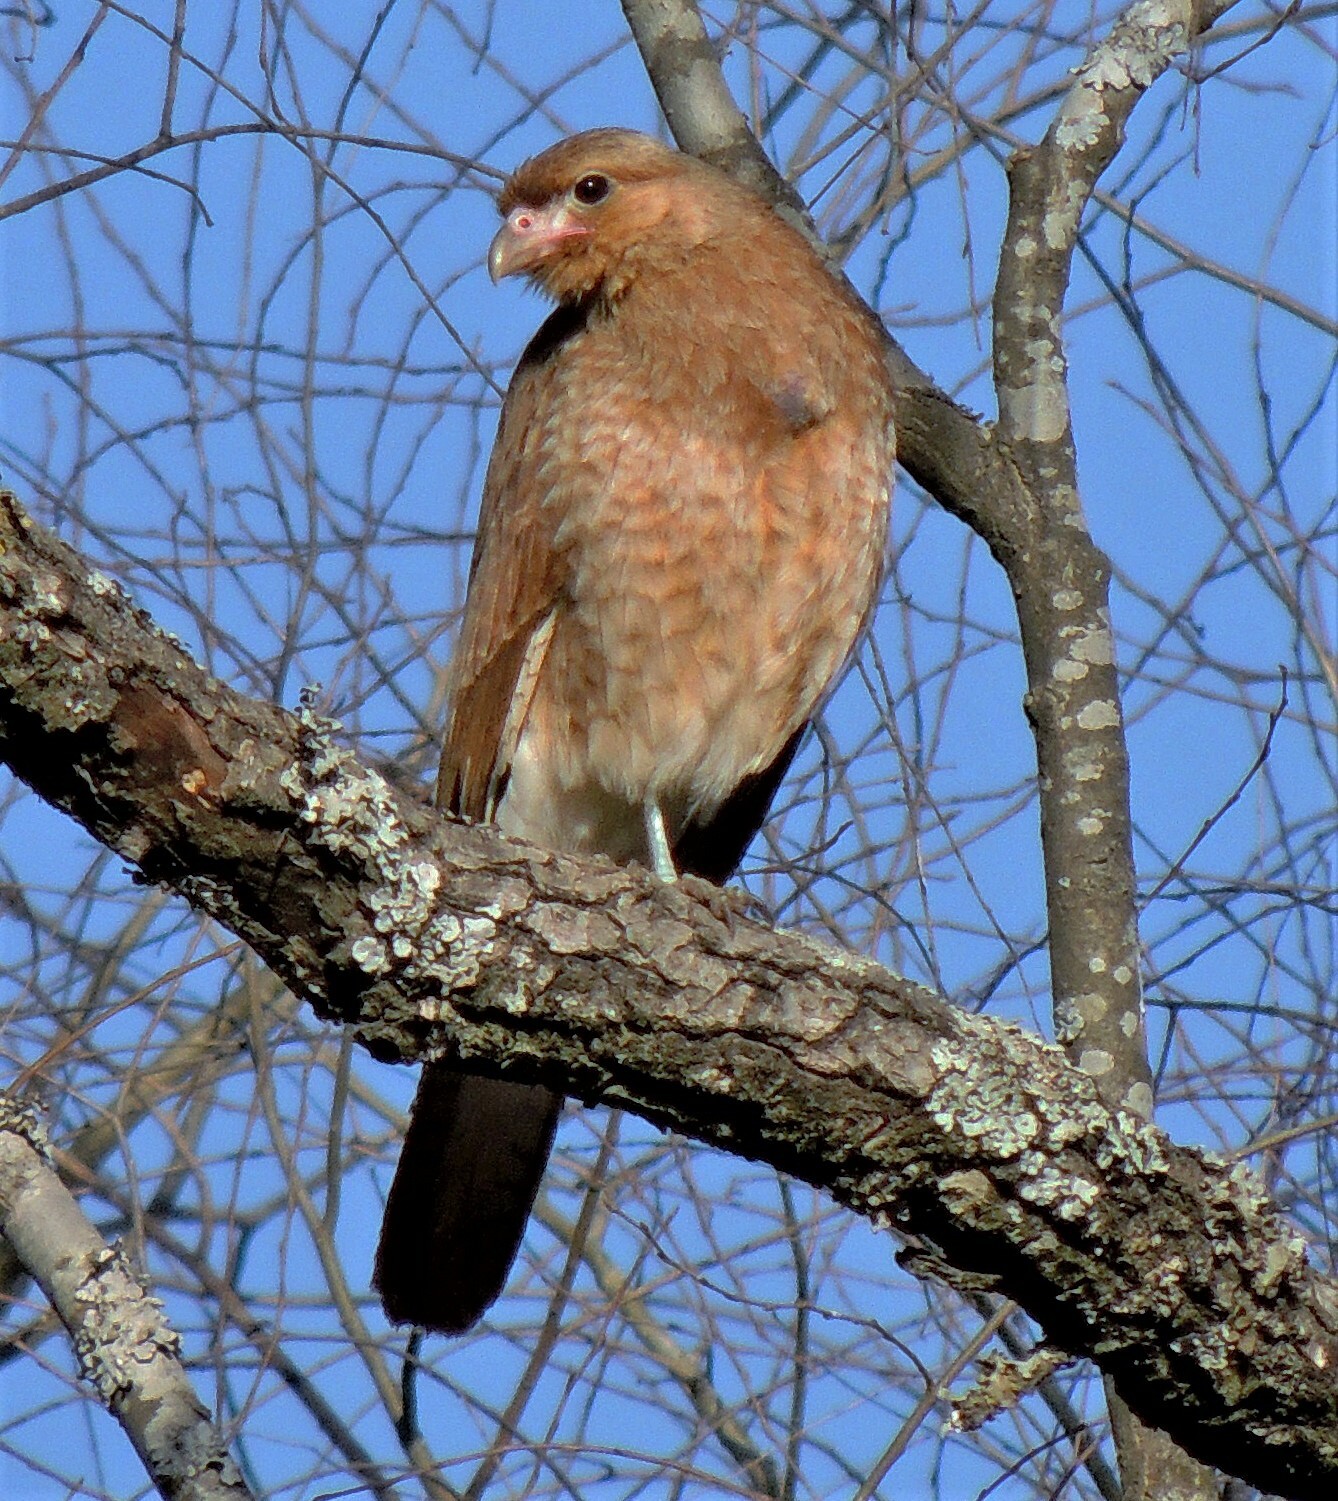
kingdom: Animalia
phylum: Chordata
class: Aves
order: Falconiformes
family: Falconidae
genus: Daptrius
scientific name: Daptrius
